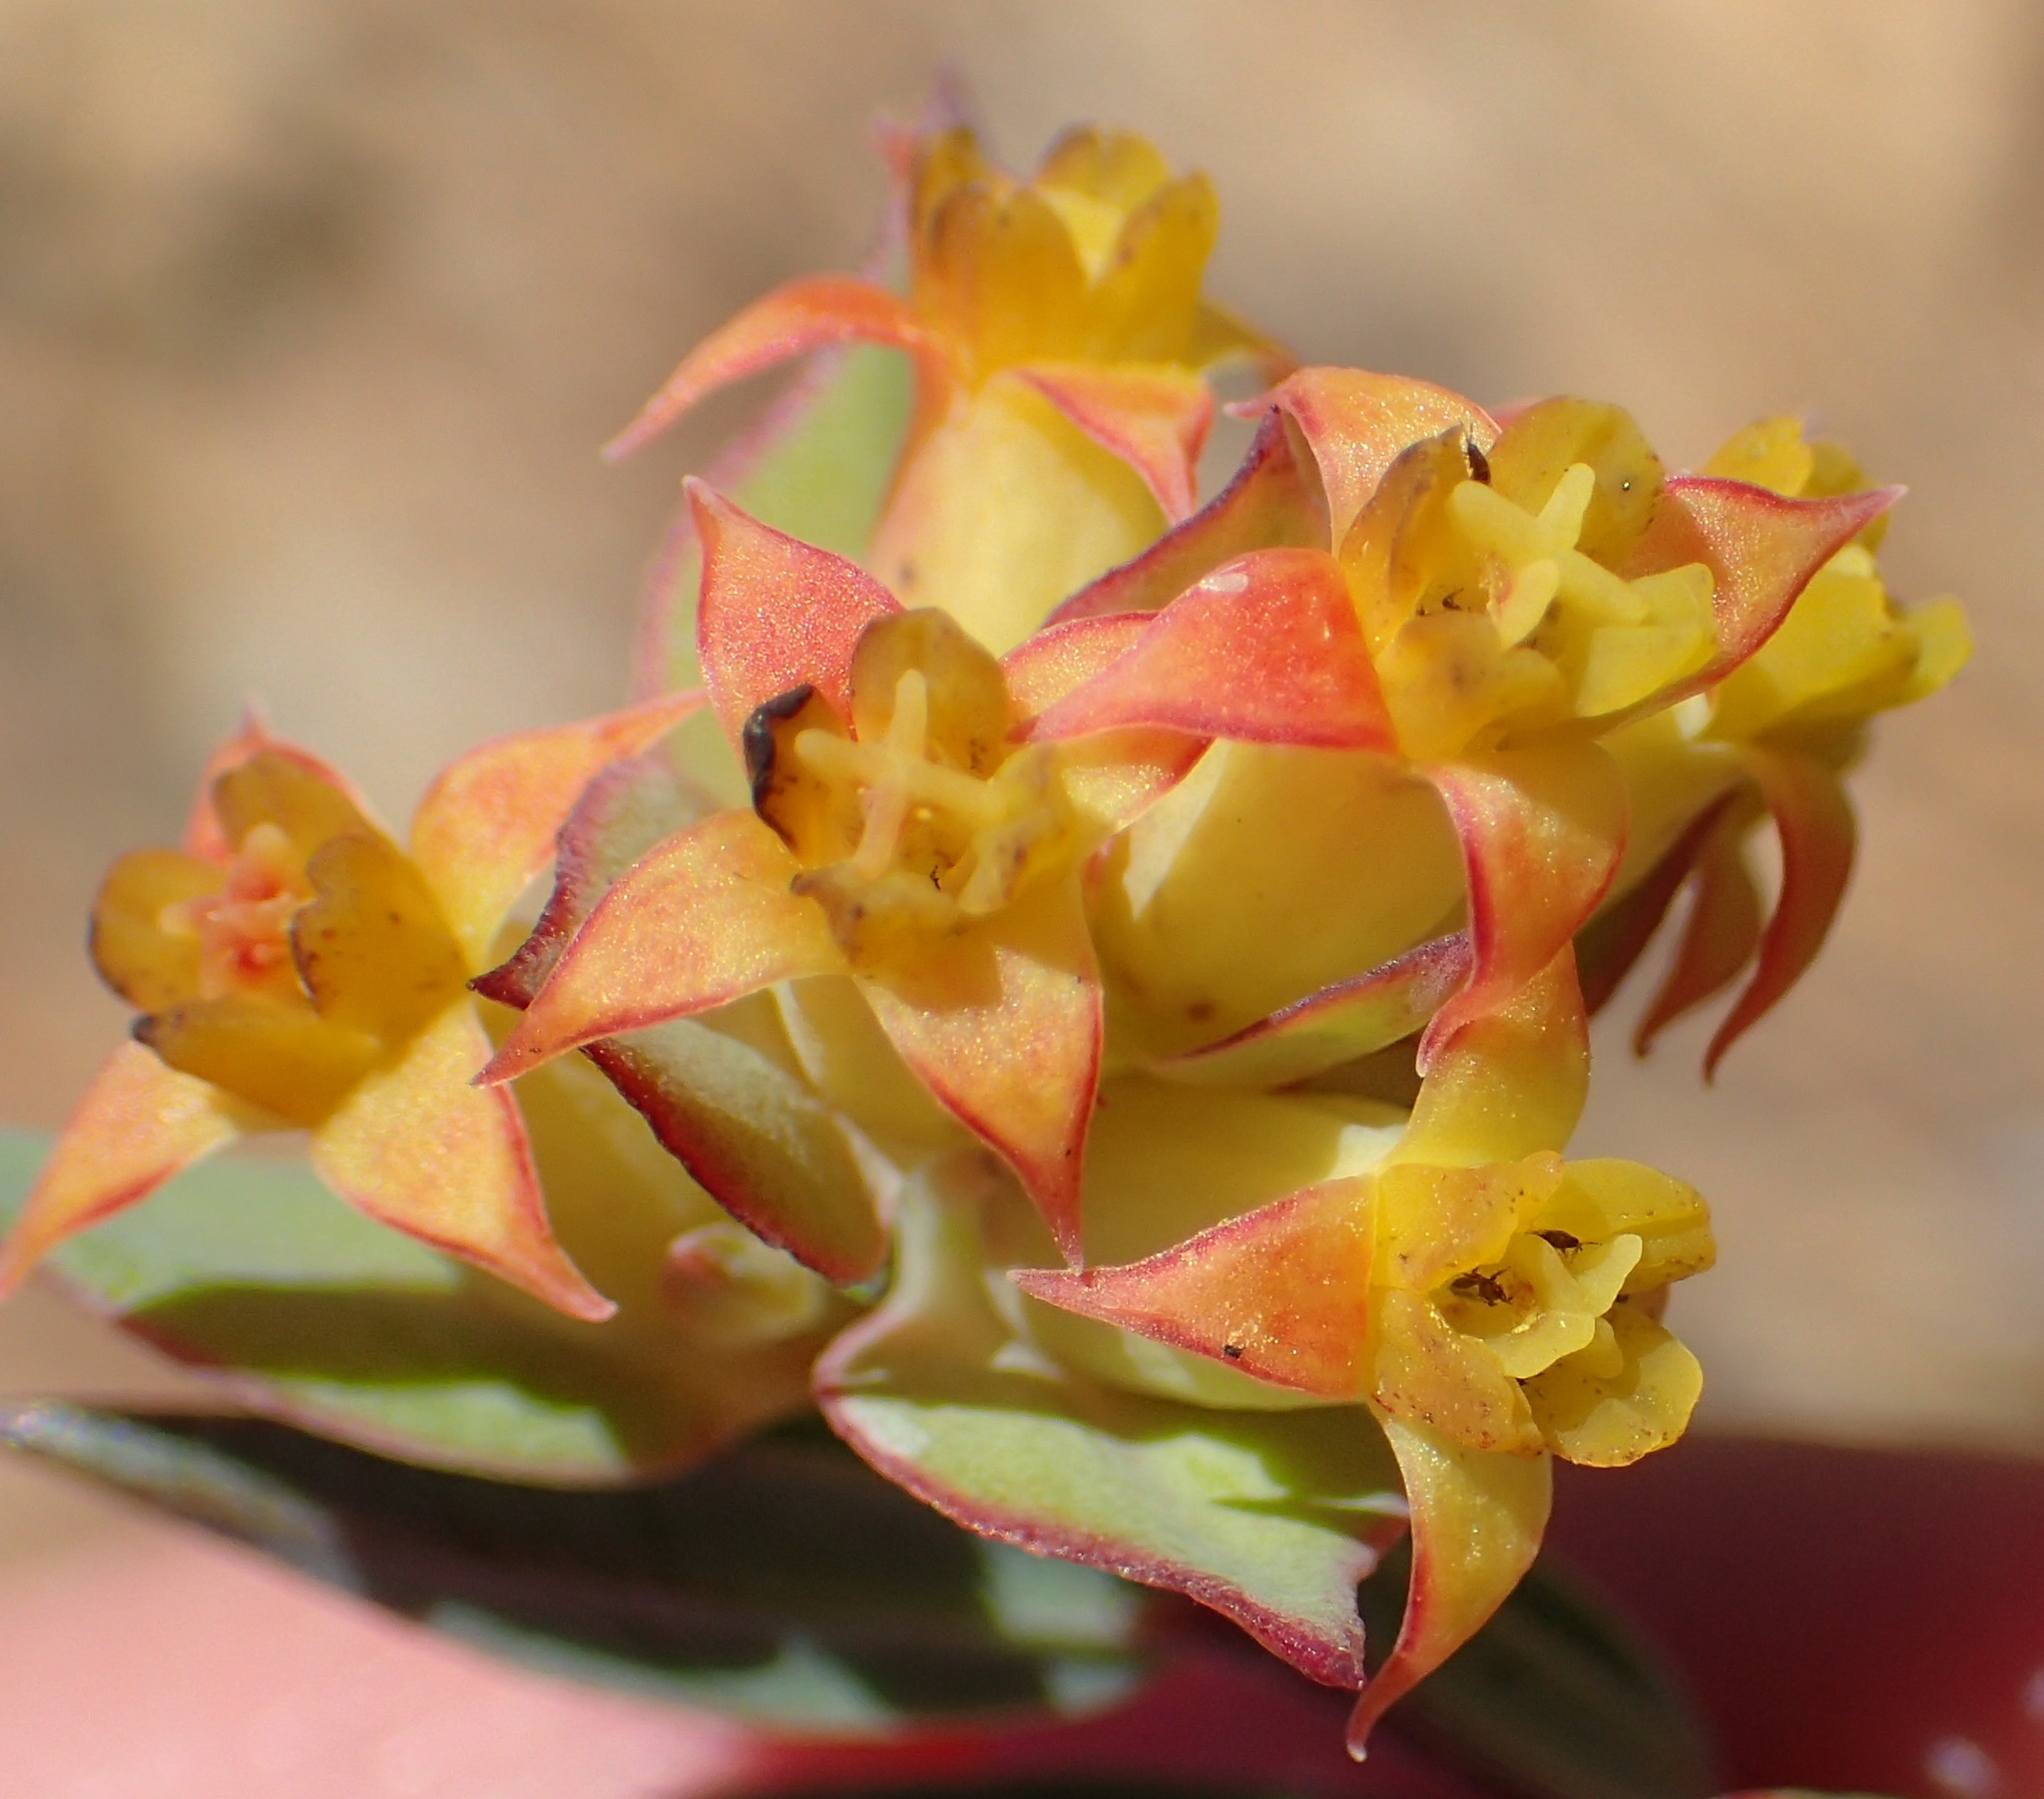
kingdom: Plantae
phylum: Tracheophyta
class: Magnoliopsida
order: Myrtales
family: Penaeaceae
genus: Penaea
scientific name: Penaea acutifolia
